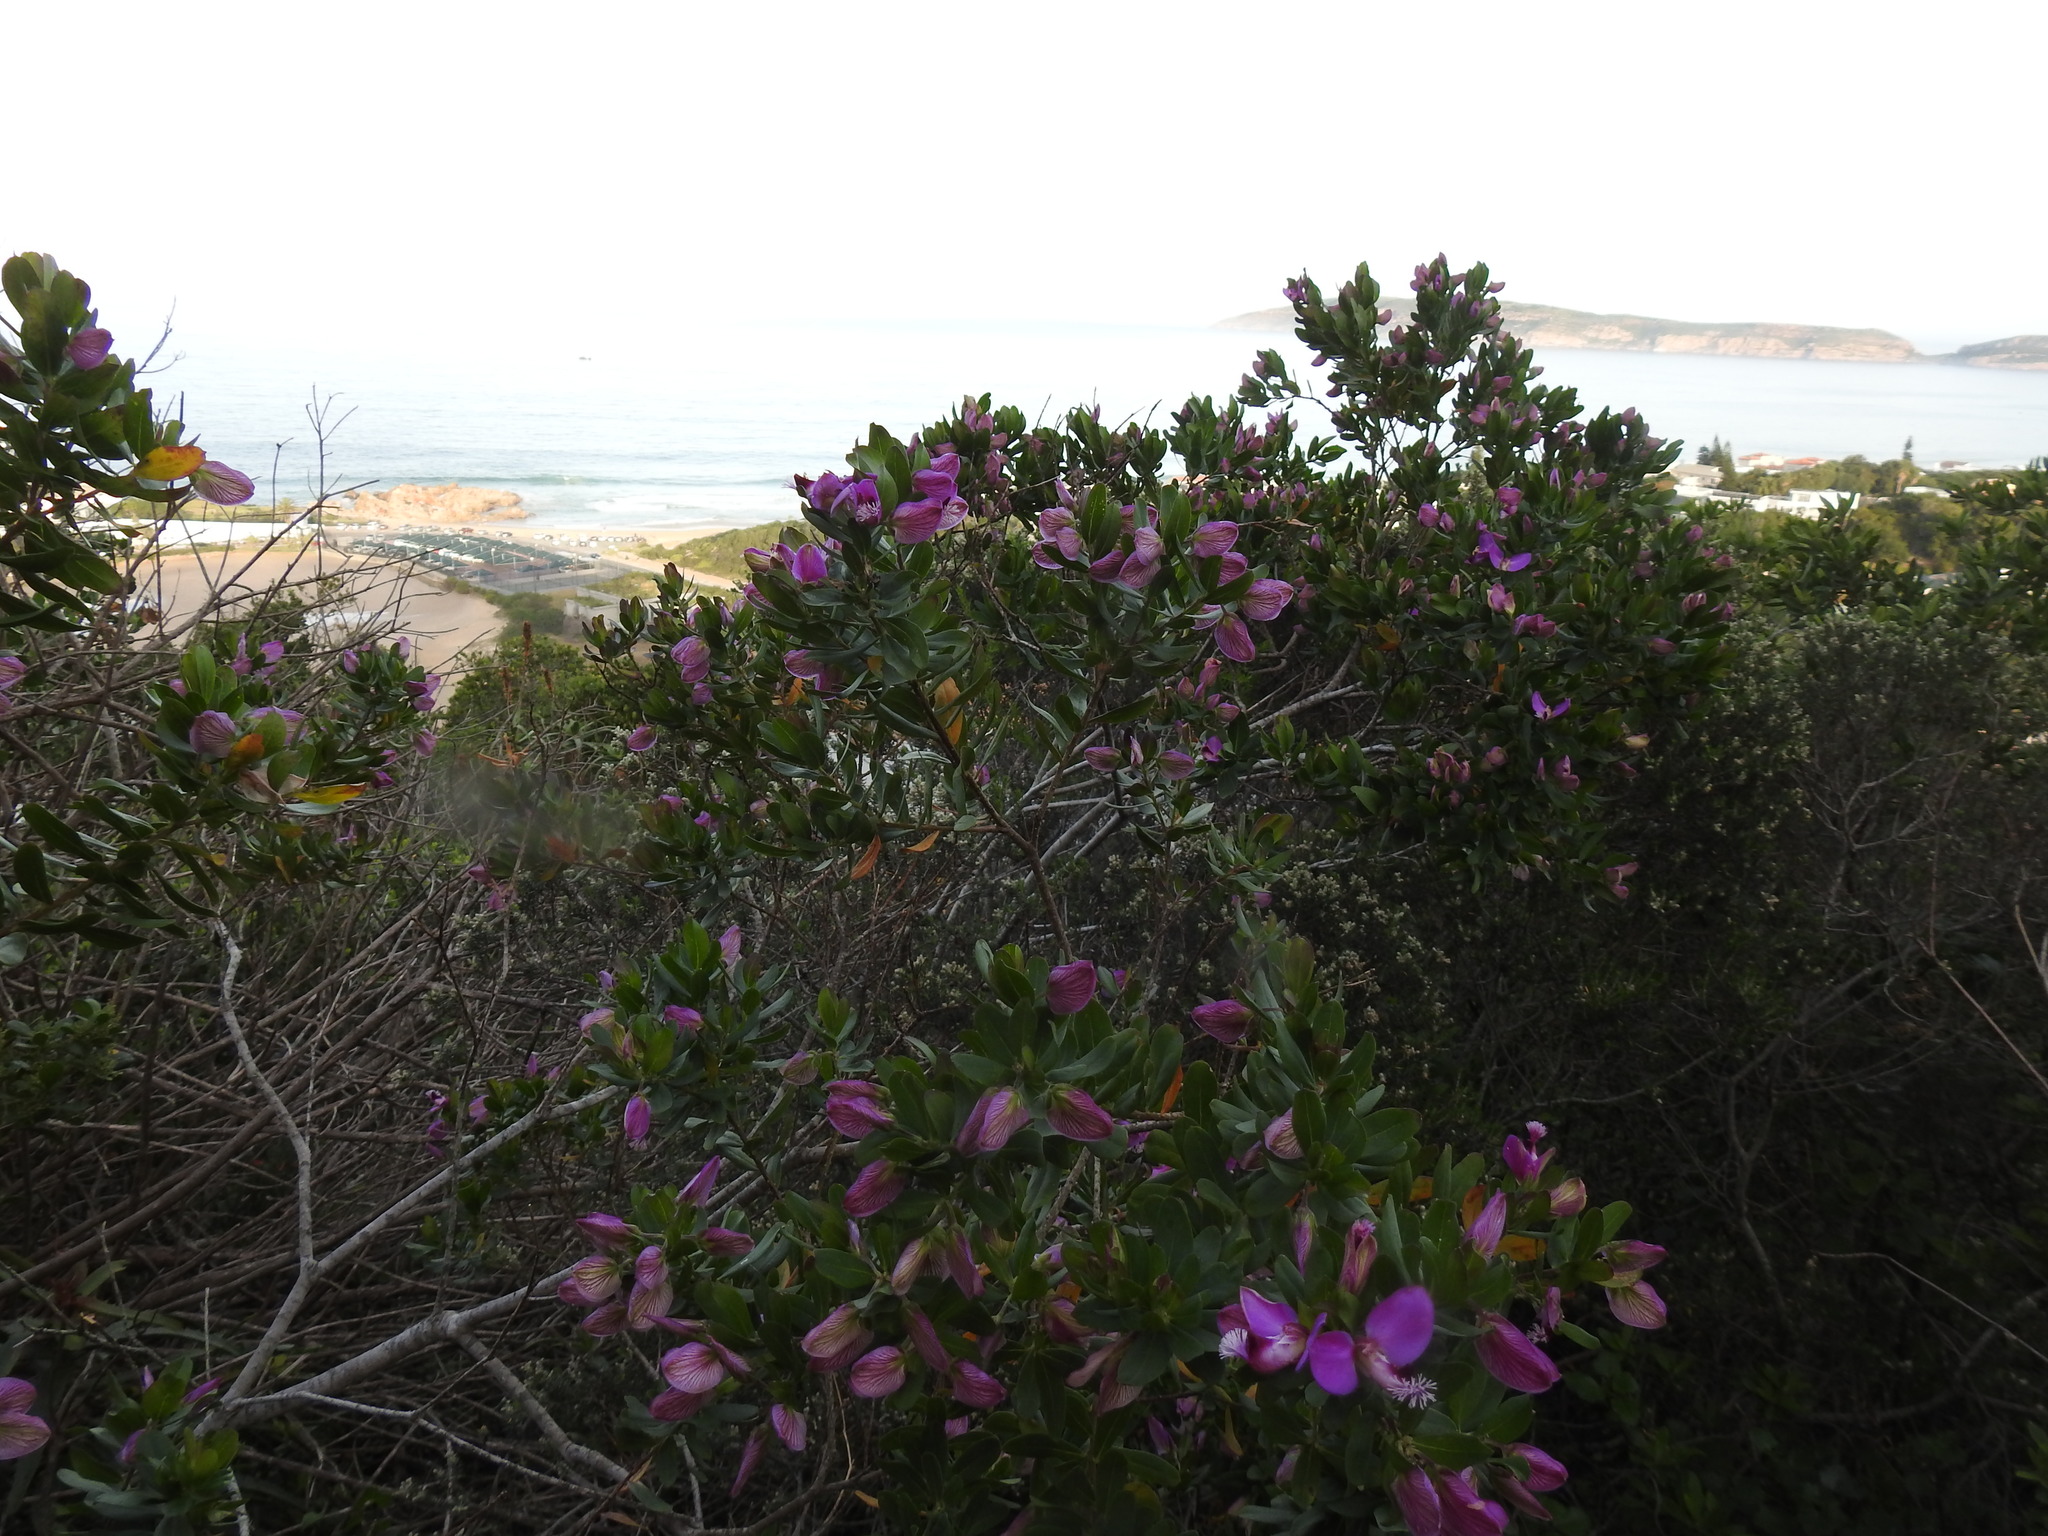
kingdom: Plantae
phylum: Tracheophyta
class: Magnoliopsida
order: Fabales
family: Polygalaceae
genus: Polygala
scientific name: Polygala myrtifolia
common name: Myrtle-leaf milkwort
